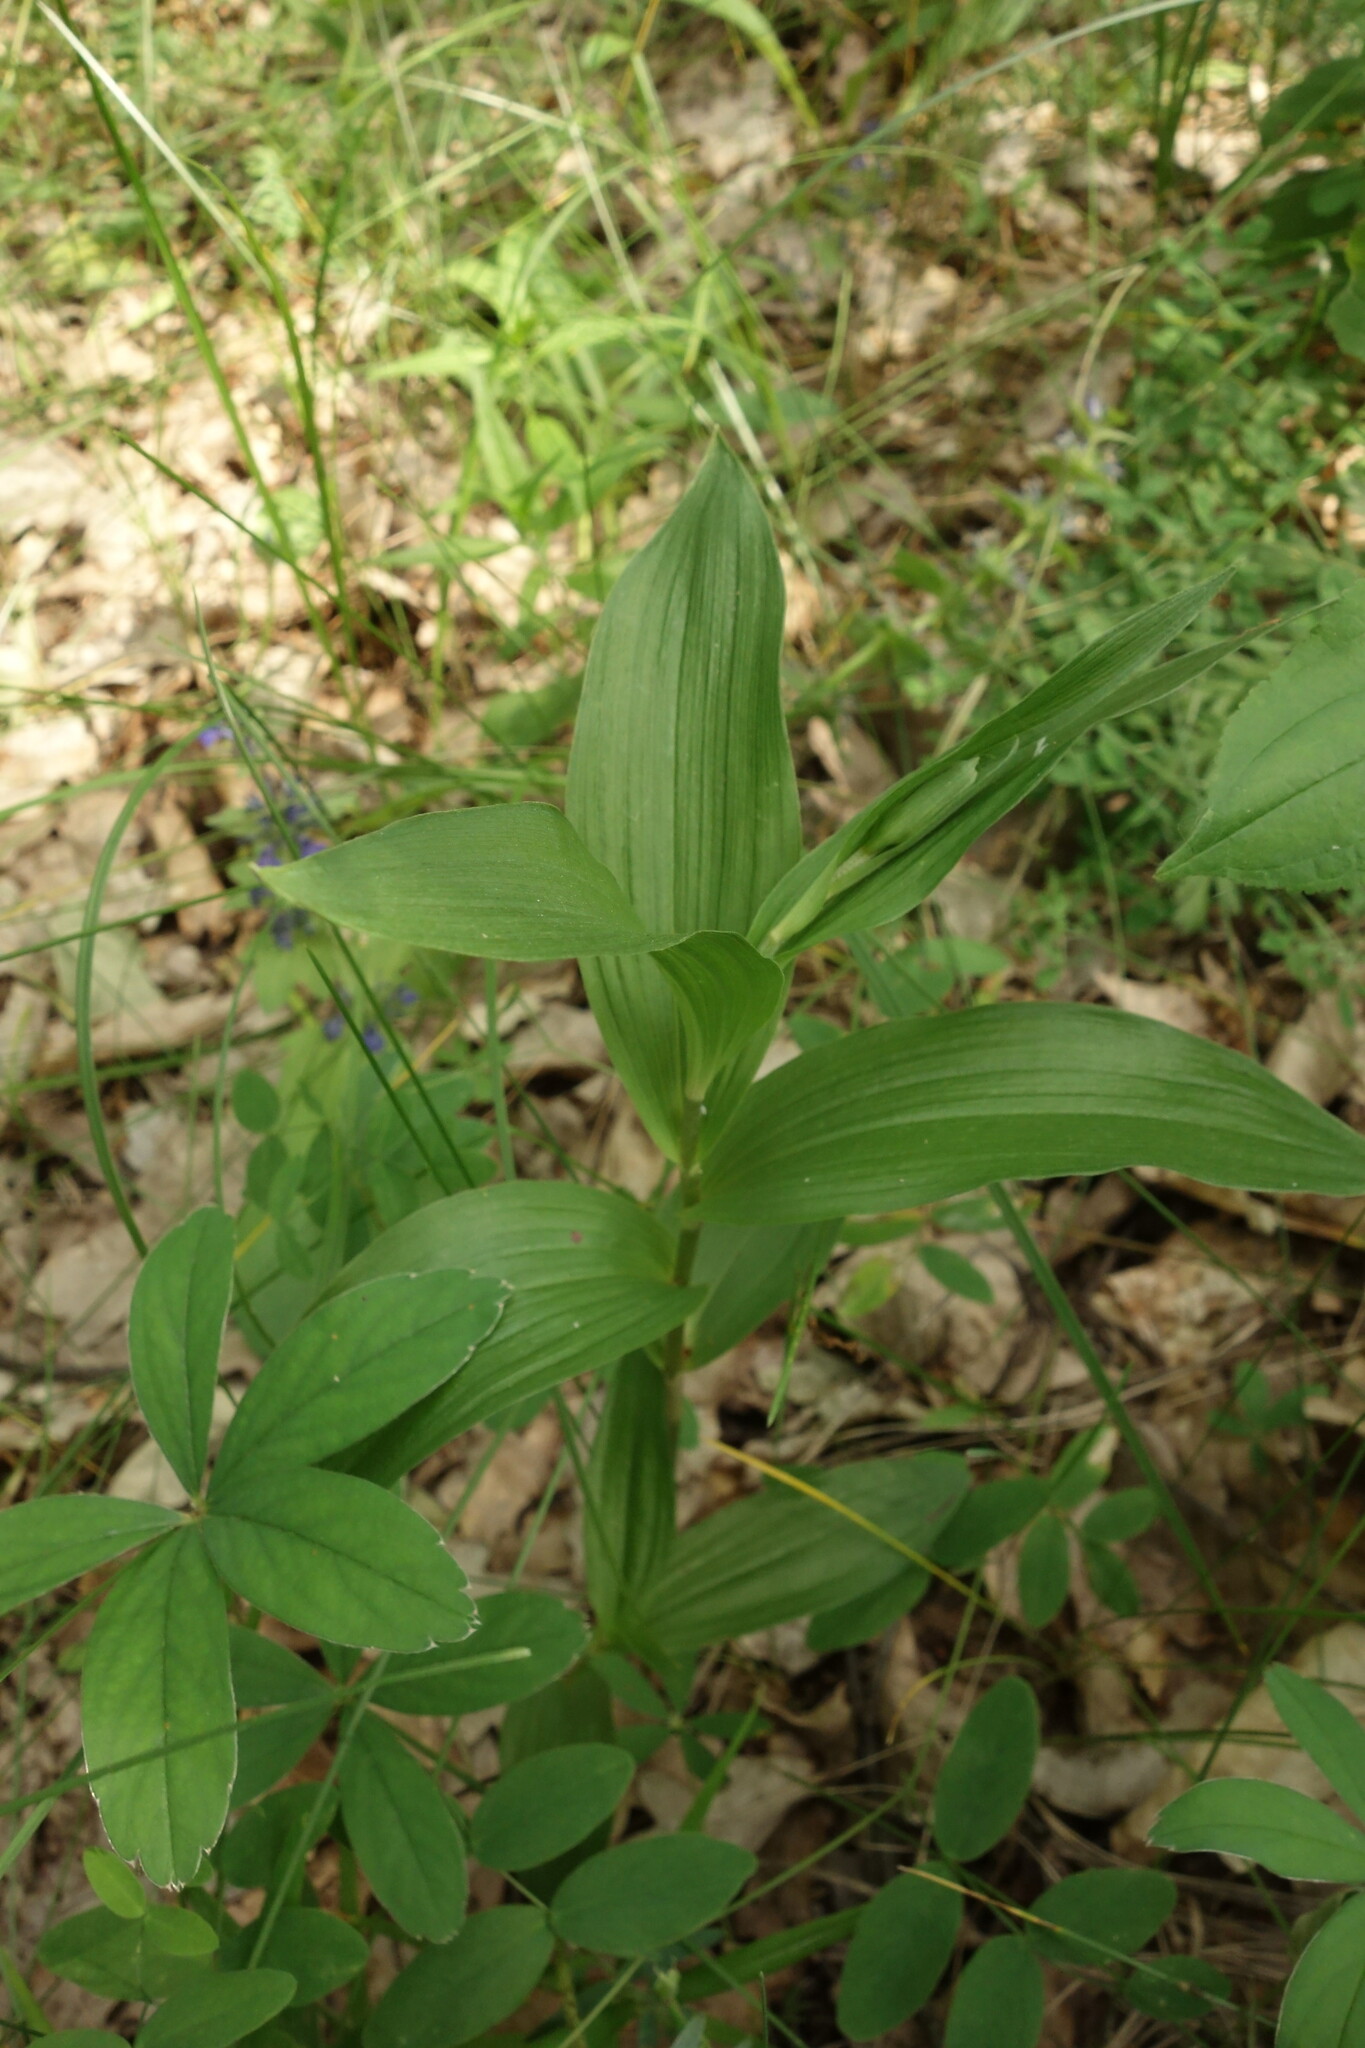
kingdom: Plantae
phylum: Tracheophyta
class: Liliopsida
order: Asparagales
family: Orchidaceae
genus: Epipactis
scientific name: Epipactis helleborine
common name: Broad-leaved helleborine
